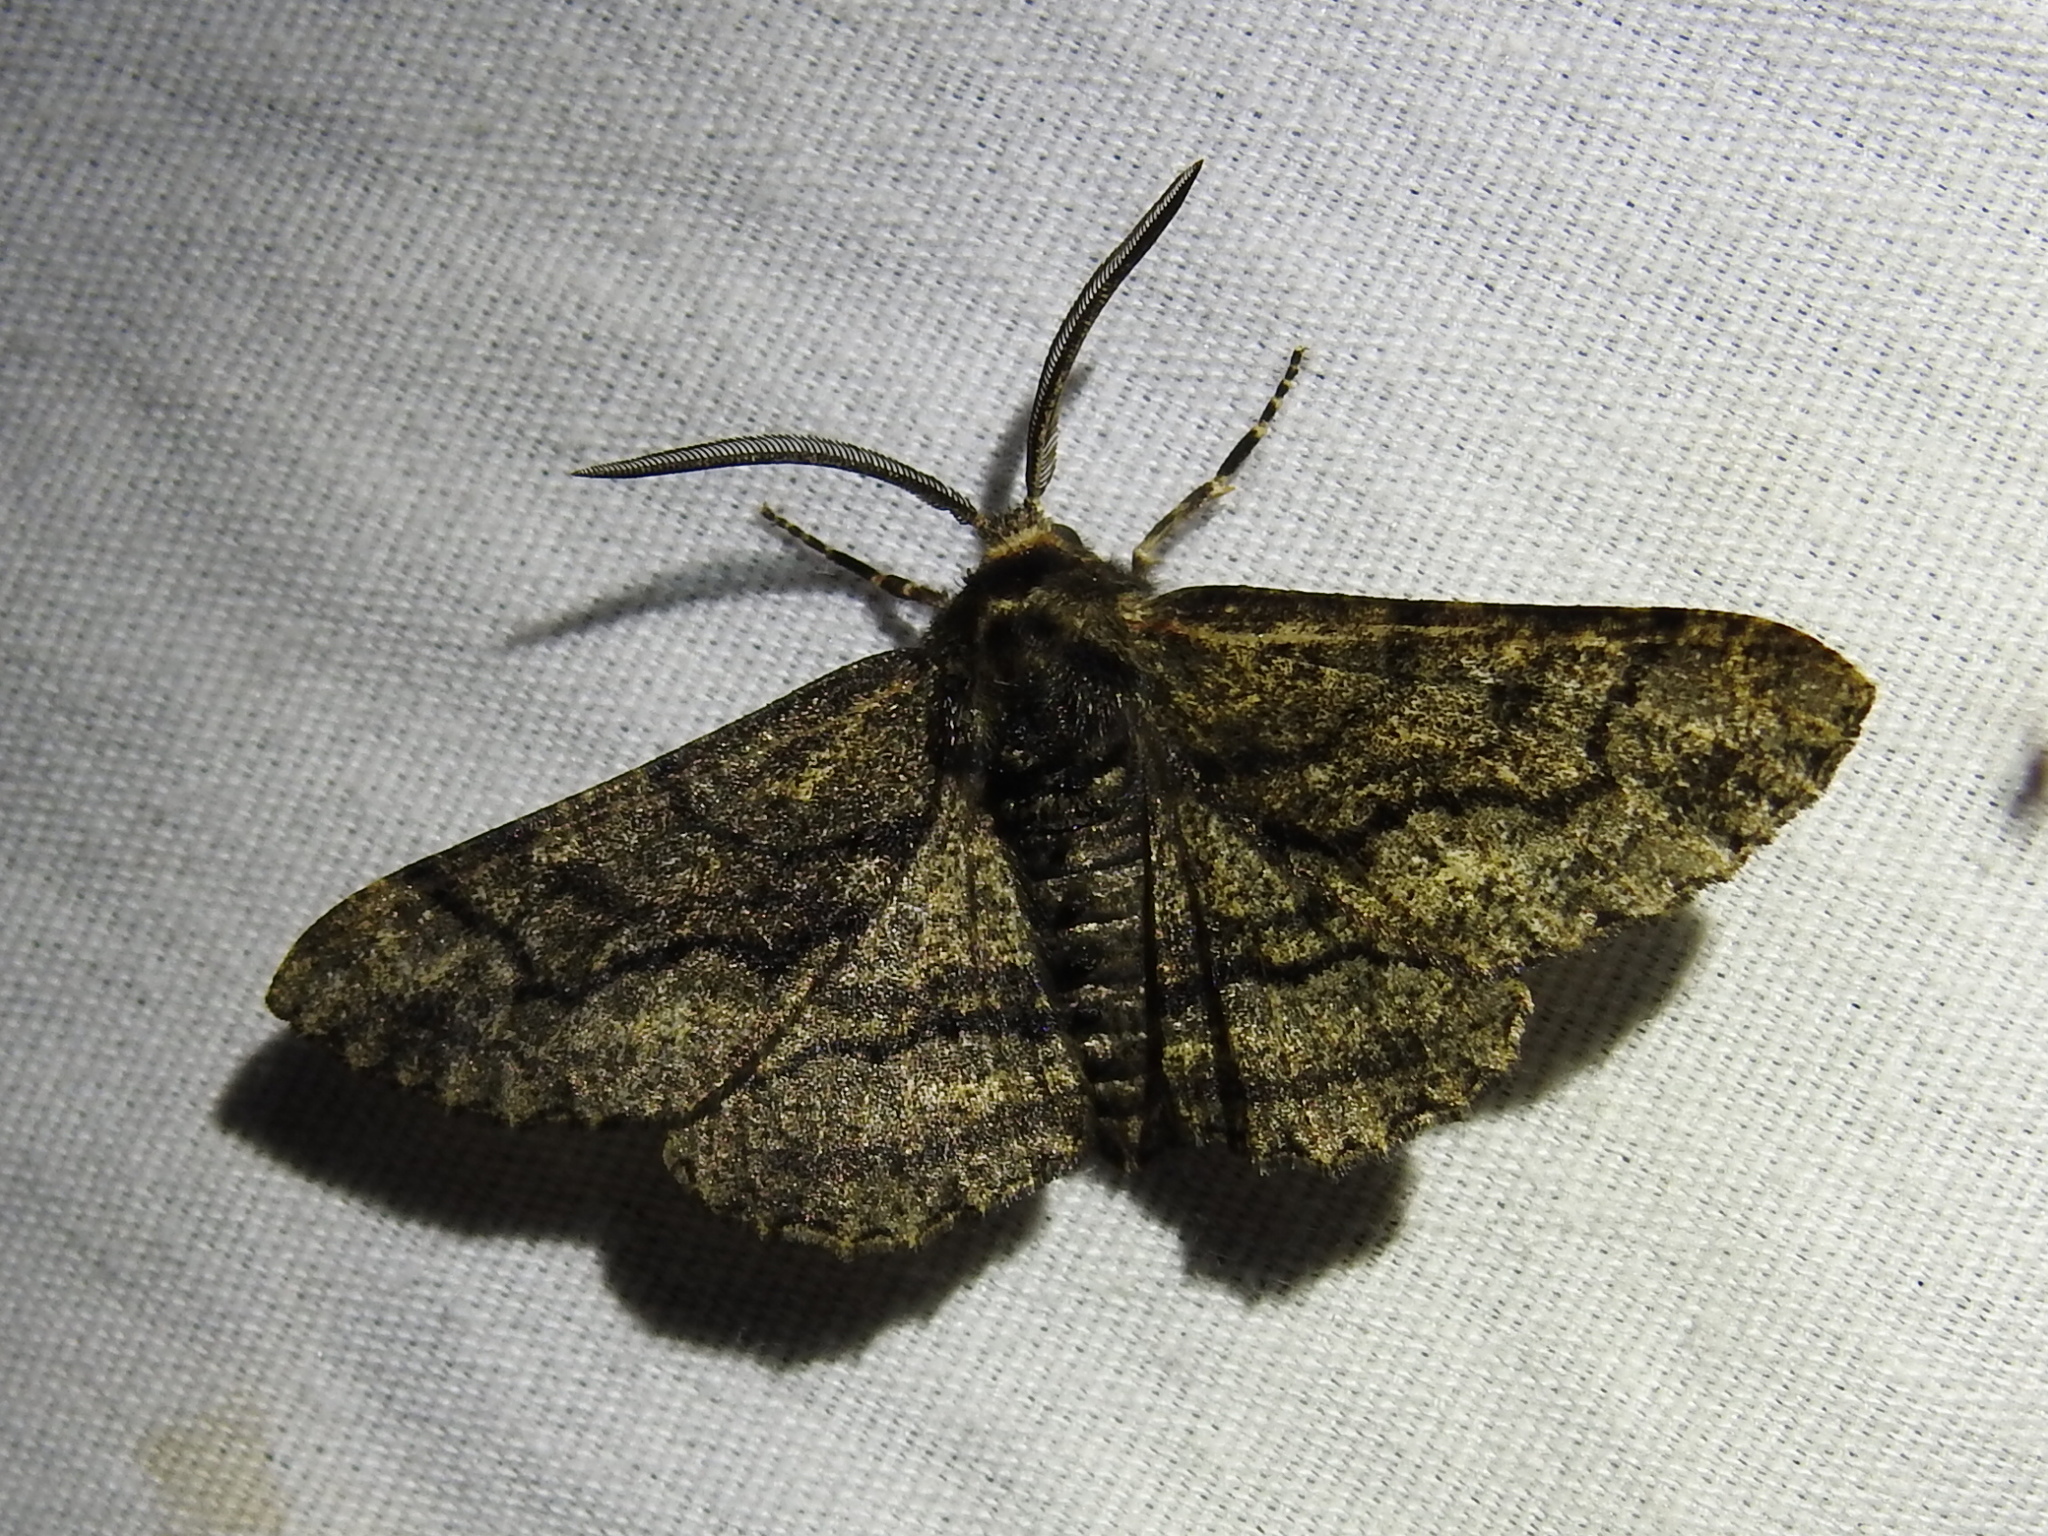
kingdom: Animalia
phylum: Arthropoda
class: Insecta
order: Lepidoptera
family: Geometridae
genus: Phaeoura
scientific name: Phaeoura quernaria
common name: Oak beauty
